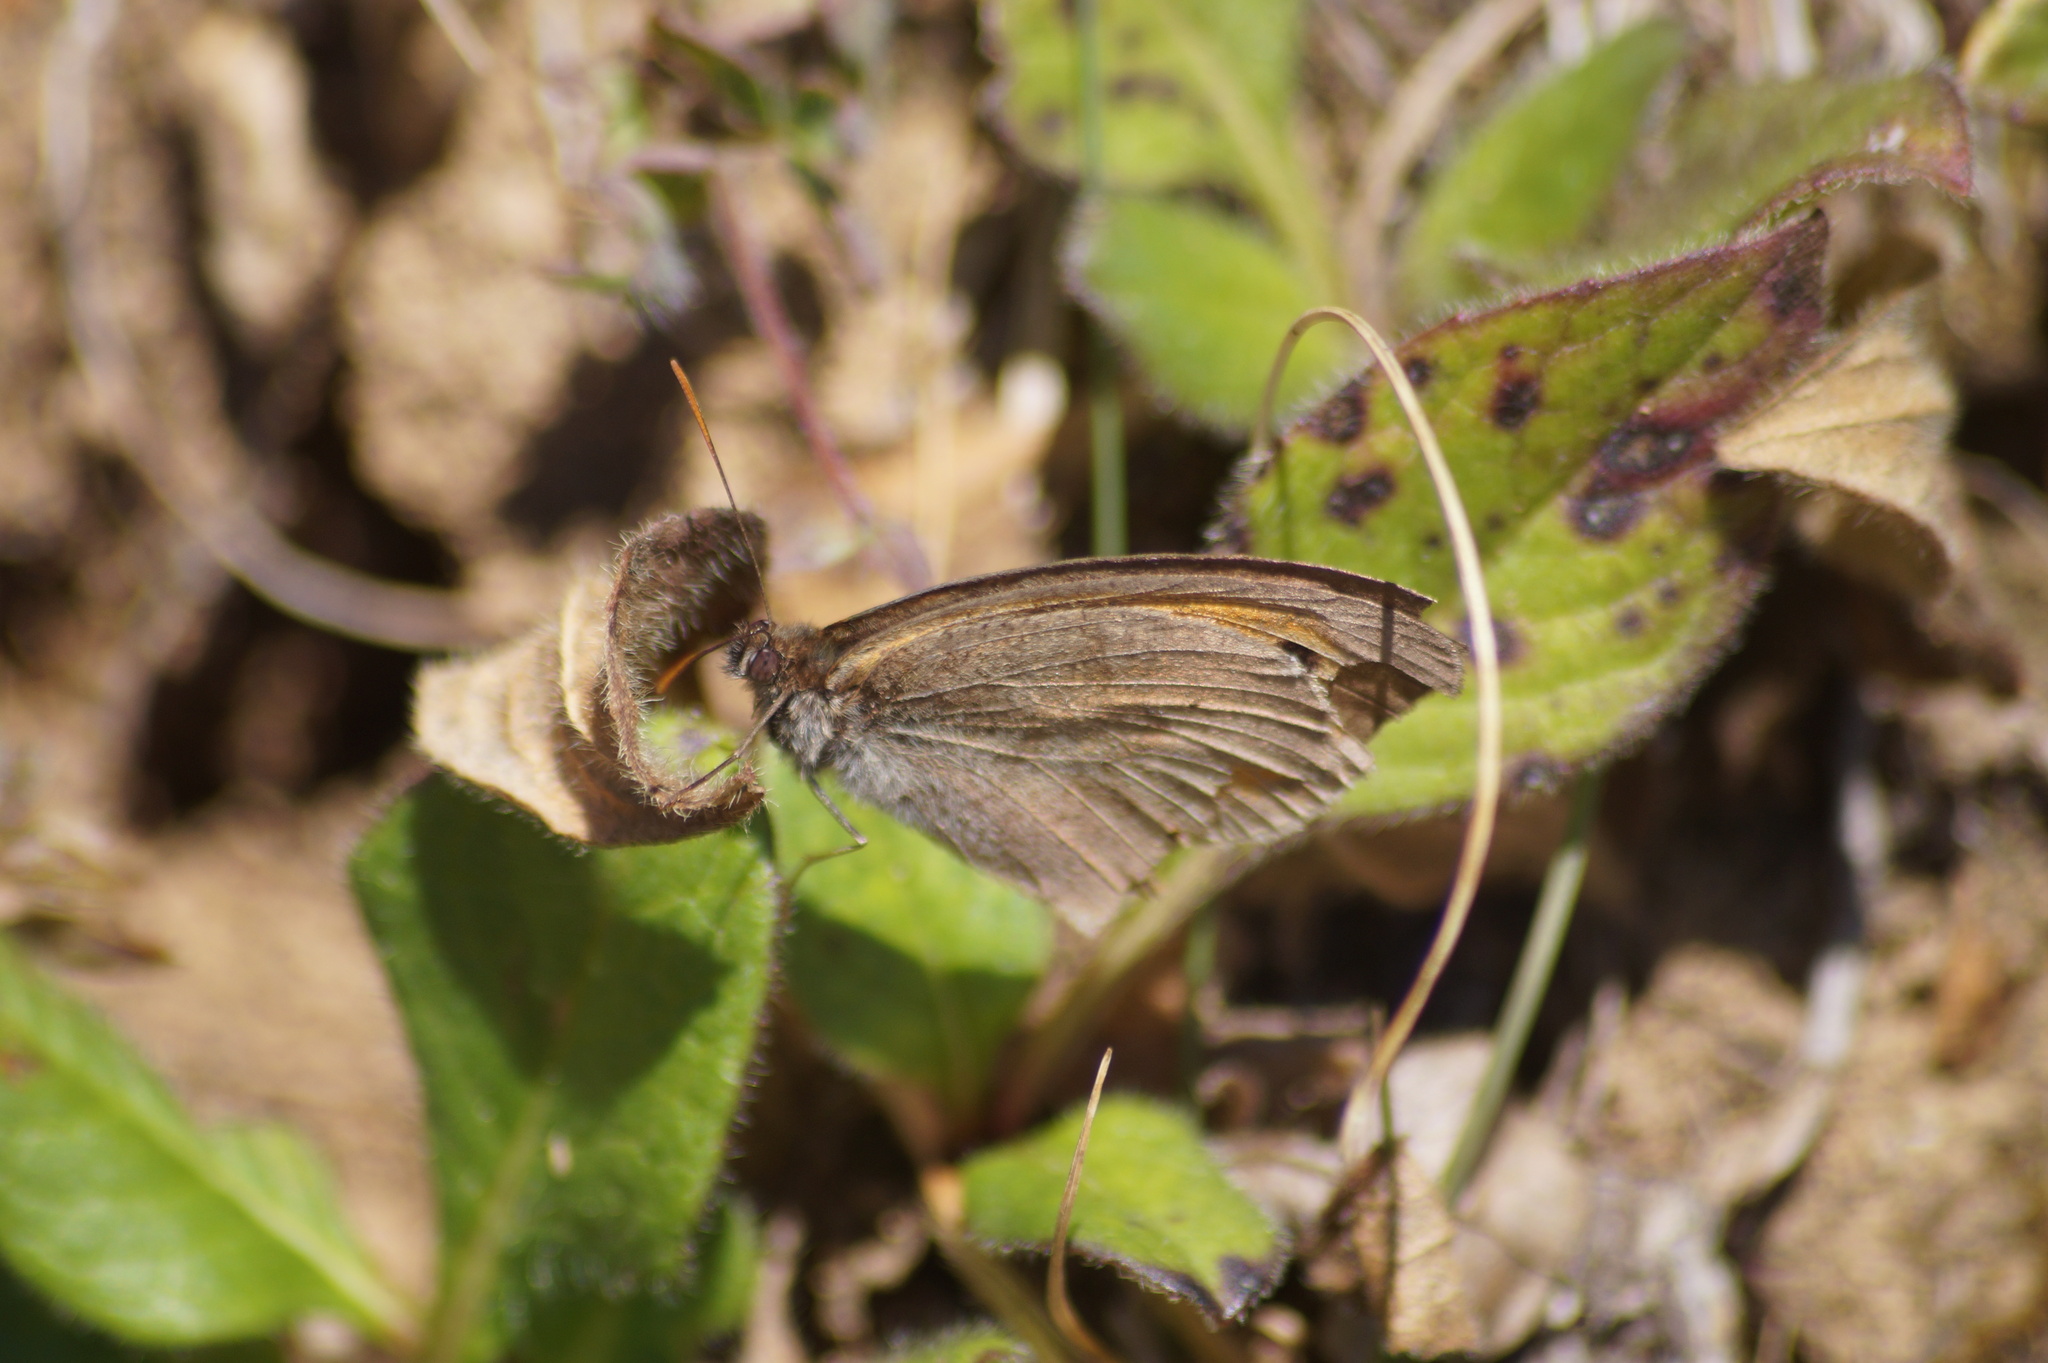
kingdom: Animalia
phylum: Arthropoda
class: Insecta
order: Lepidoptera
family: Nymphalidae
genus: Maniola
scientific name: Maniola jurtina
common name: Meadow brown
